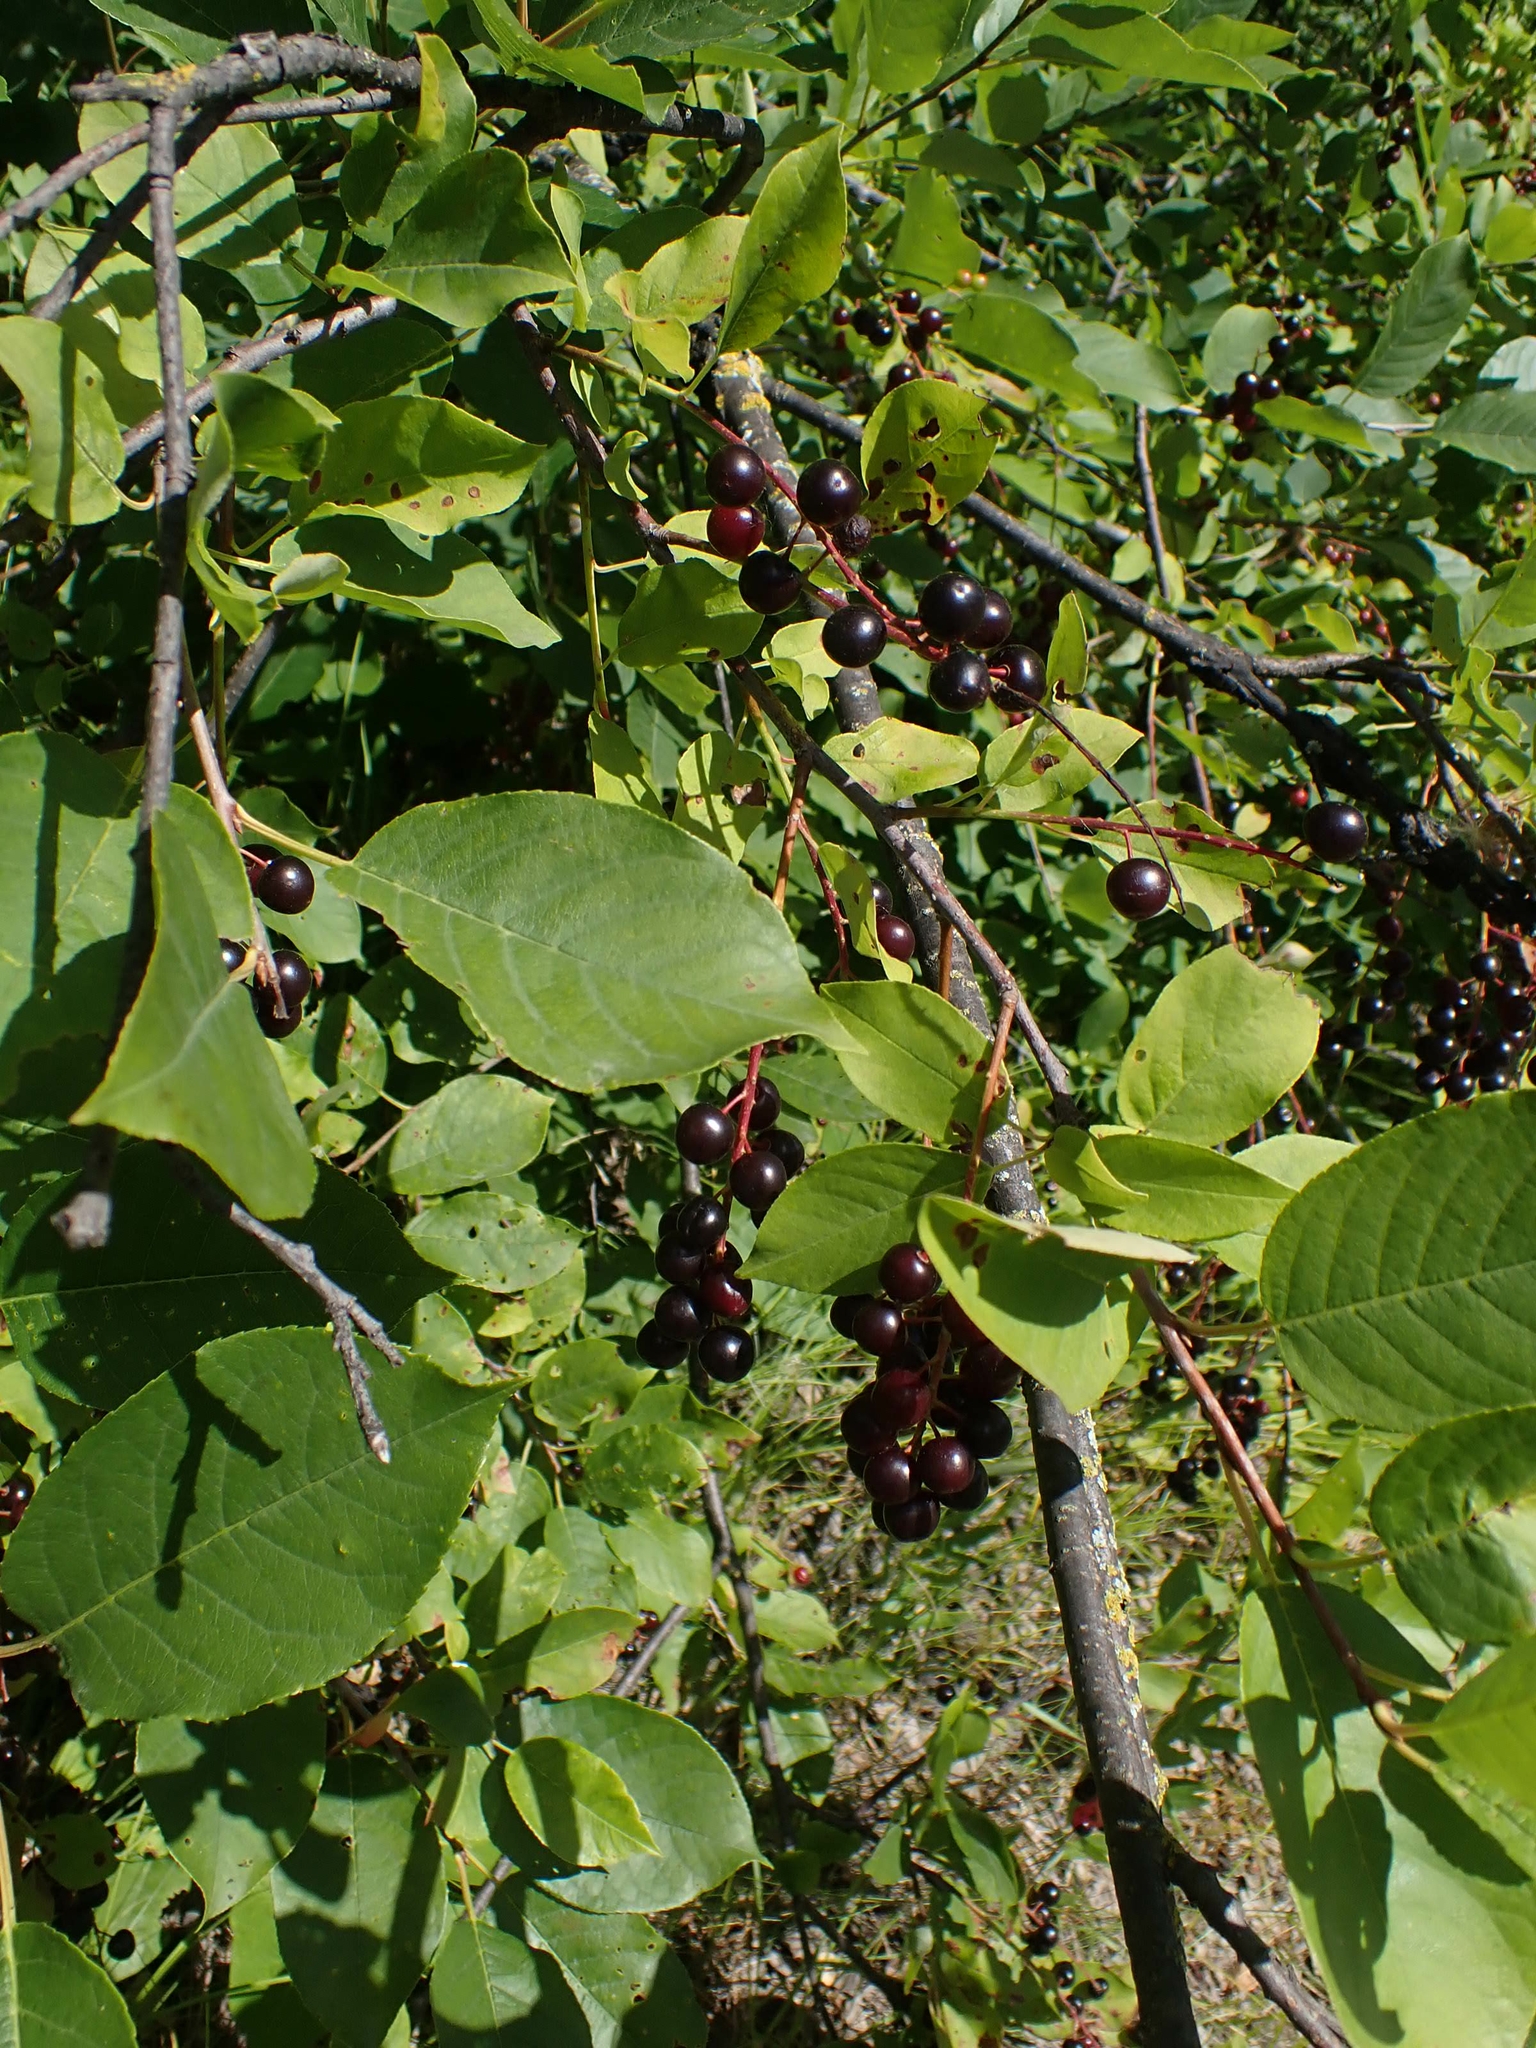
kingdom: Plantae
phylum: Tracheophyta
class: Magnoliopsida
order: Rosales
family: Rosaceae
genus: Prunus
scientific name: Prunus virginiana
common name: Chokecherry
